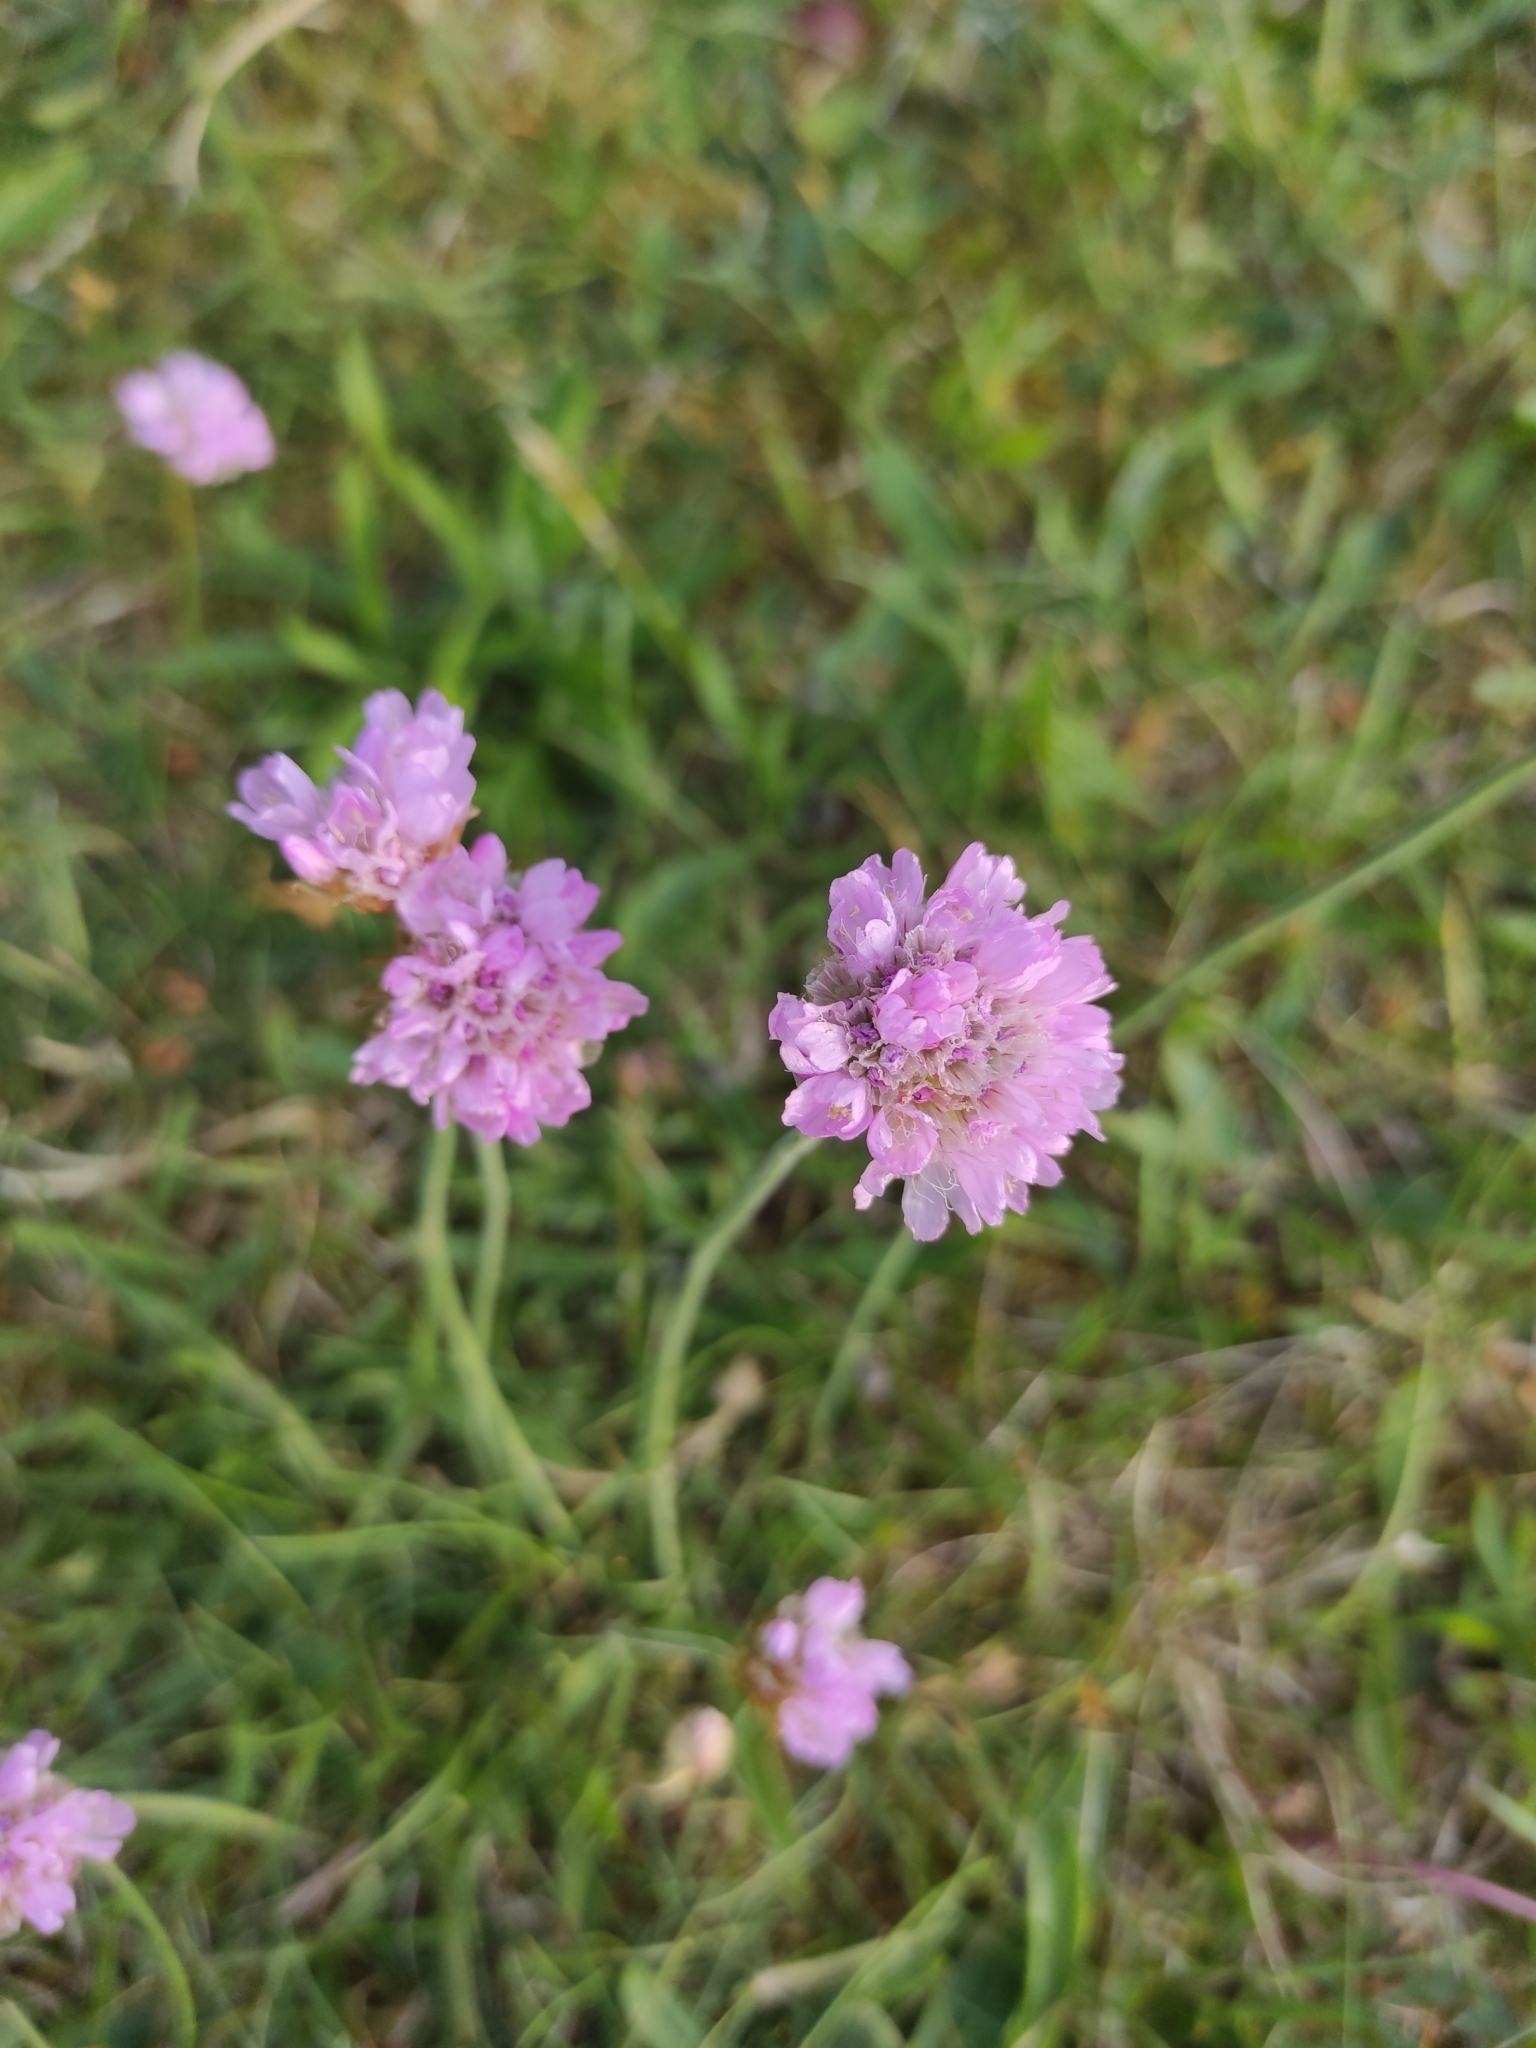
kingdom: Plantae
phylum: Tracheophyta
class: Magnoliopsida
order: Caryophyllales
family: Plumbaginaceae
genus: Armeria
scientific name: Armeria maritima
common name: Thrift
